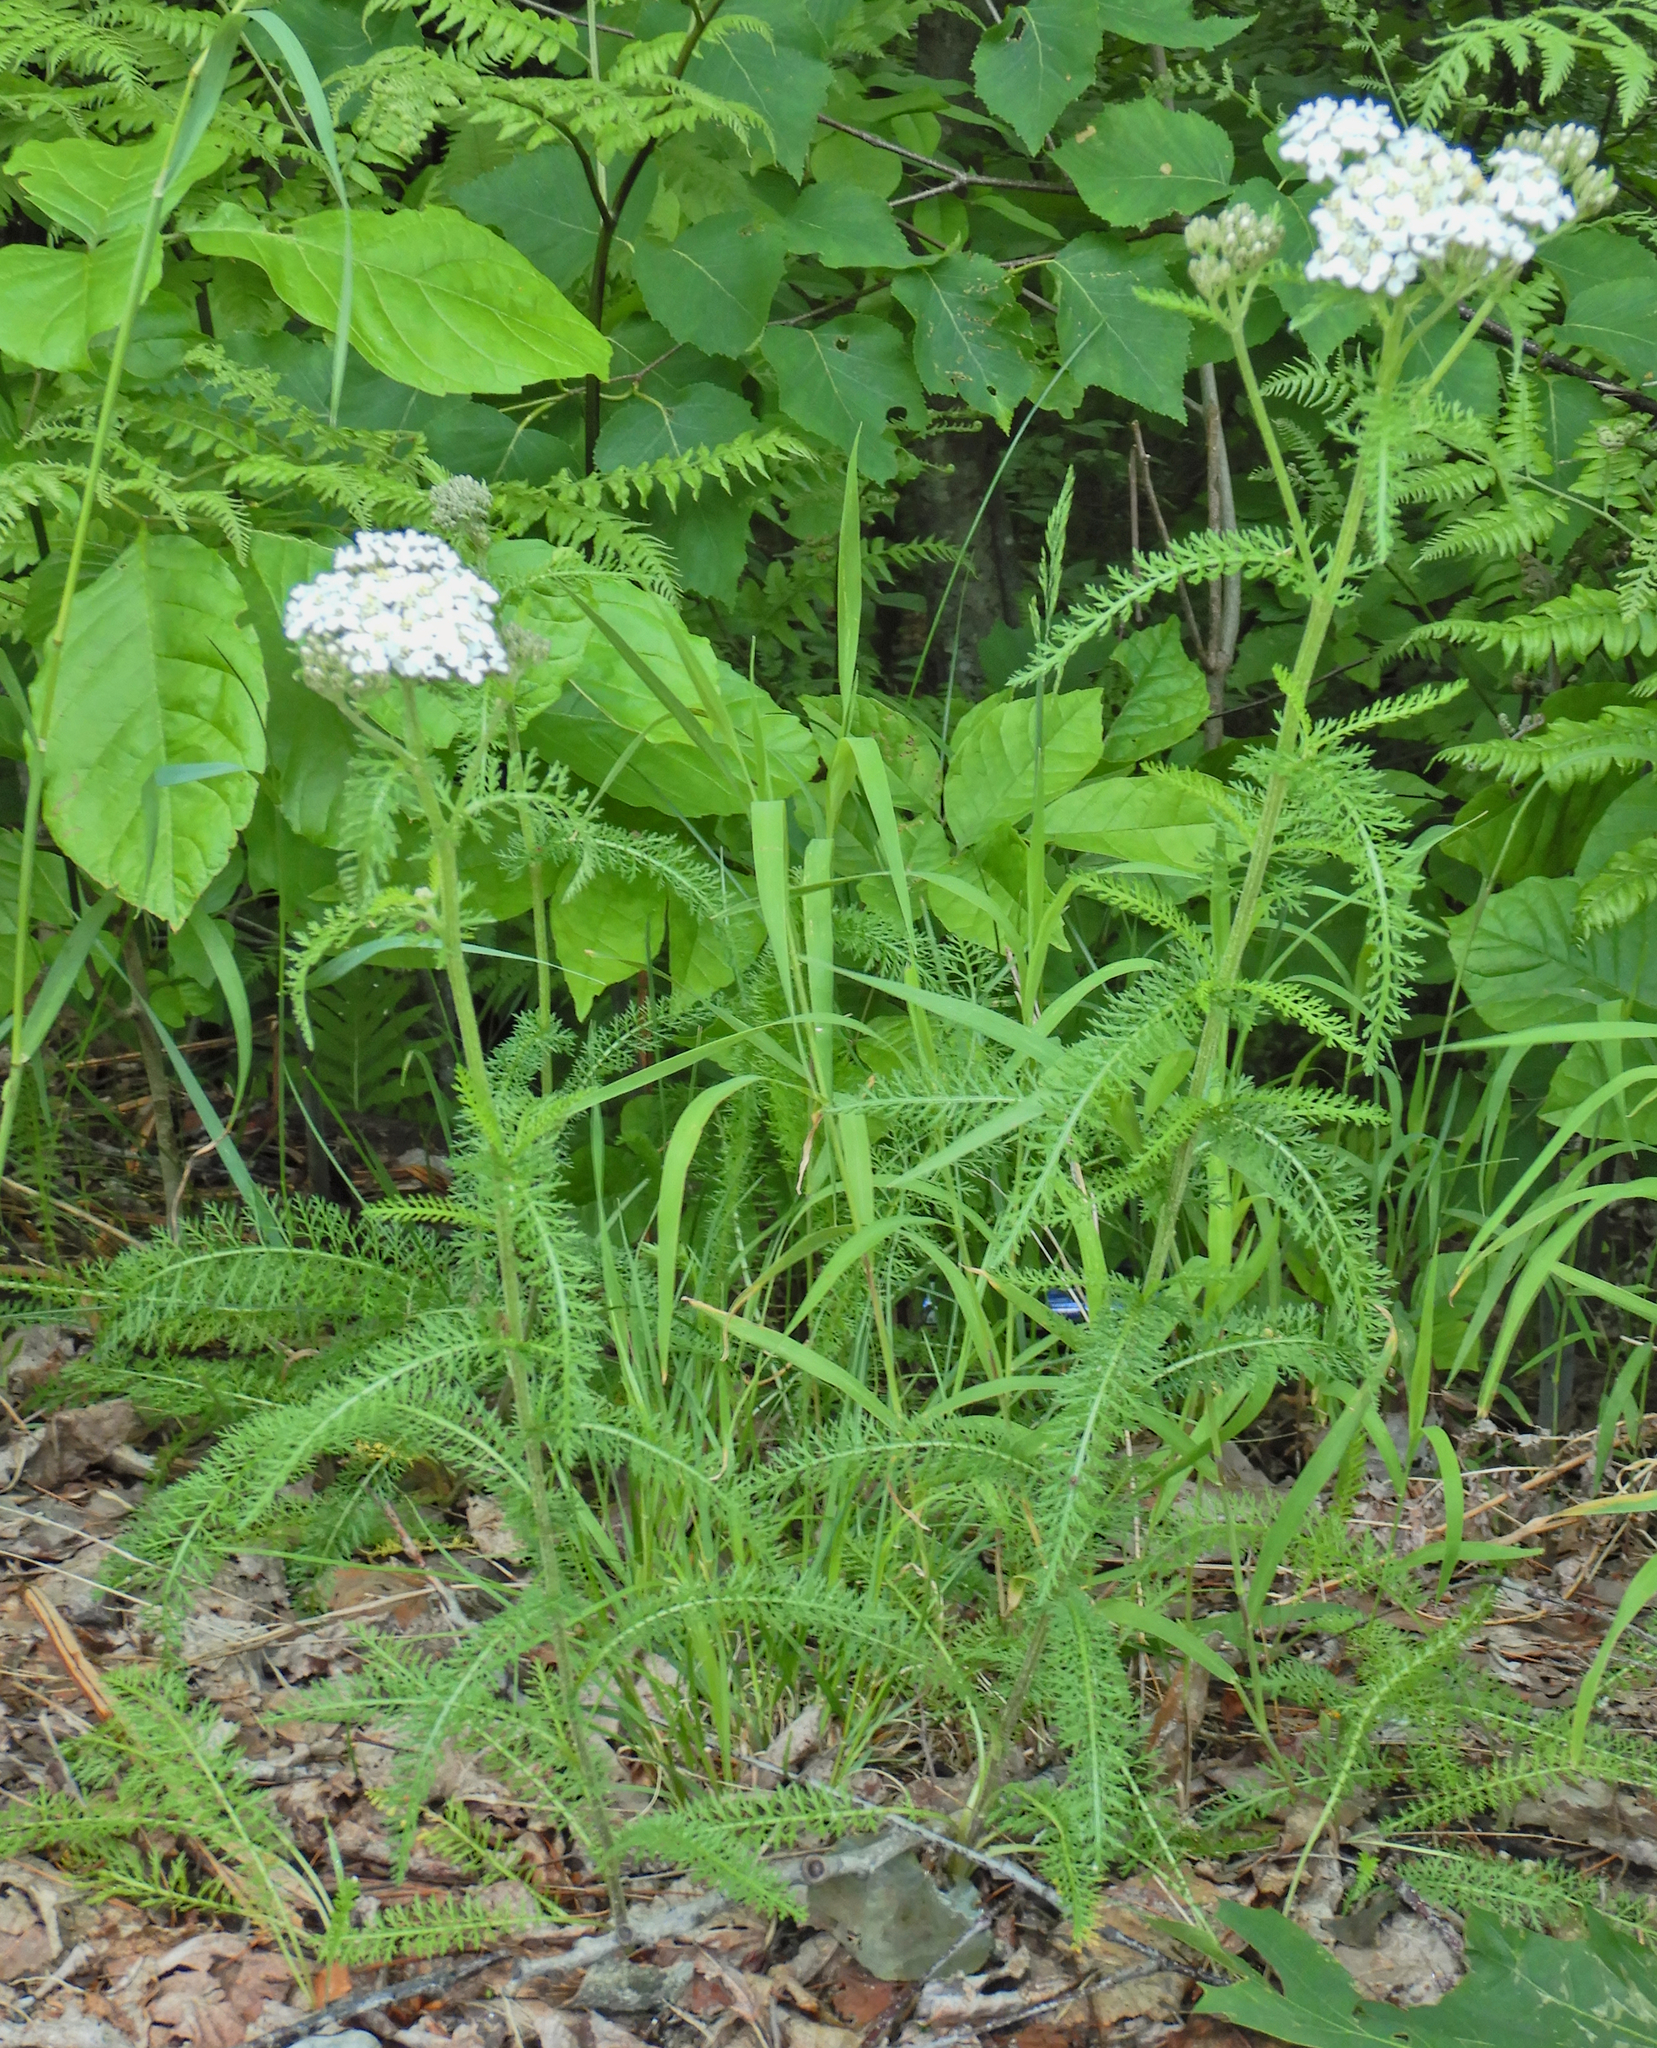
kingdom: Plantae
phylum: Tracheophyta
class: Magnoliopsida
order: Asterales
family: Asteraceae
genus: Achillea
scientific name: Achillea millefolium
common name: Yarrow
